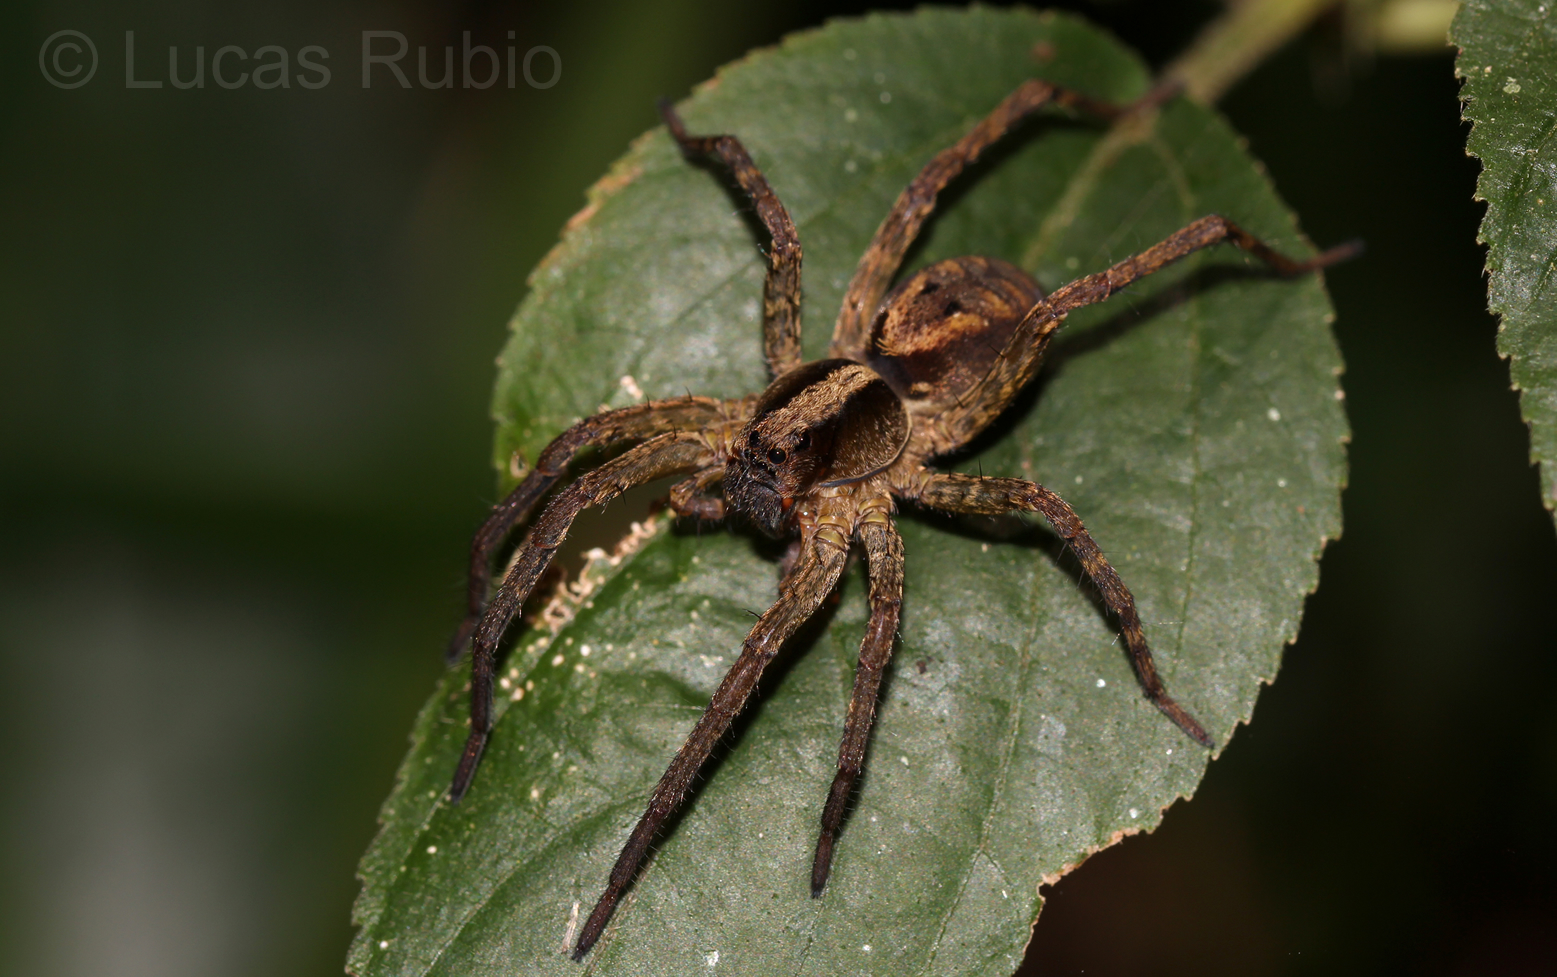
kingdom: Animalia
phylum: Arthropoda
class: Arachnida
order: Araneae
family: Lycosidae
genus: Hogna
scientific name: Hogna gumia
